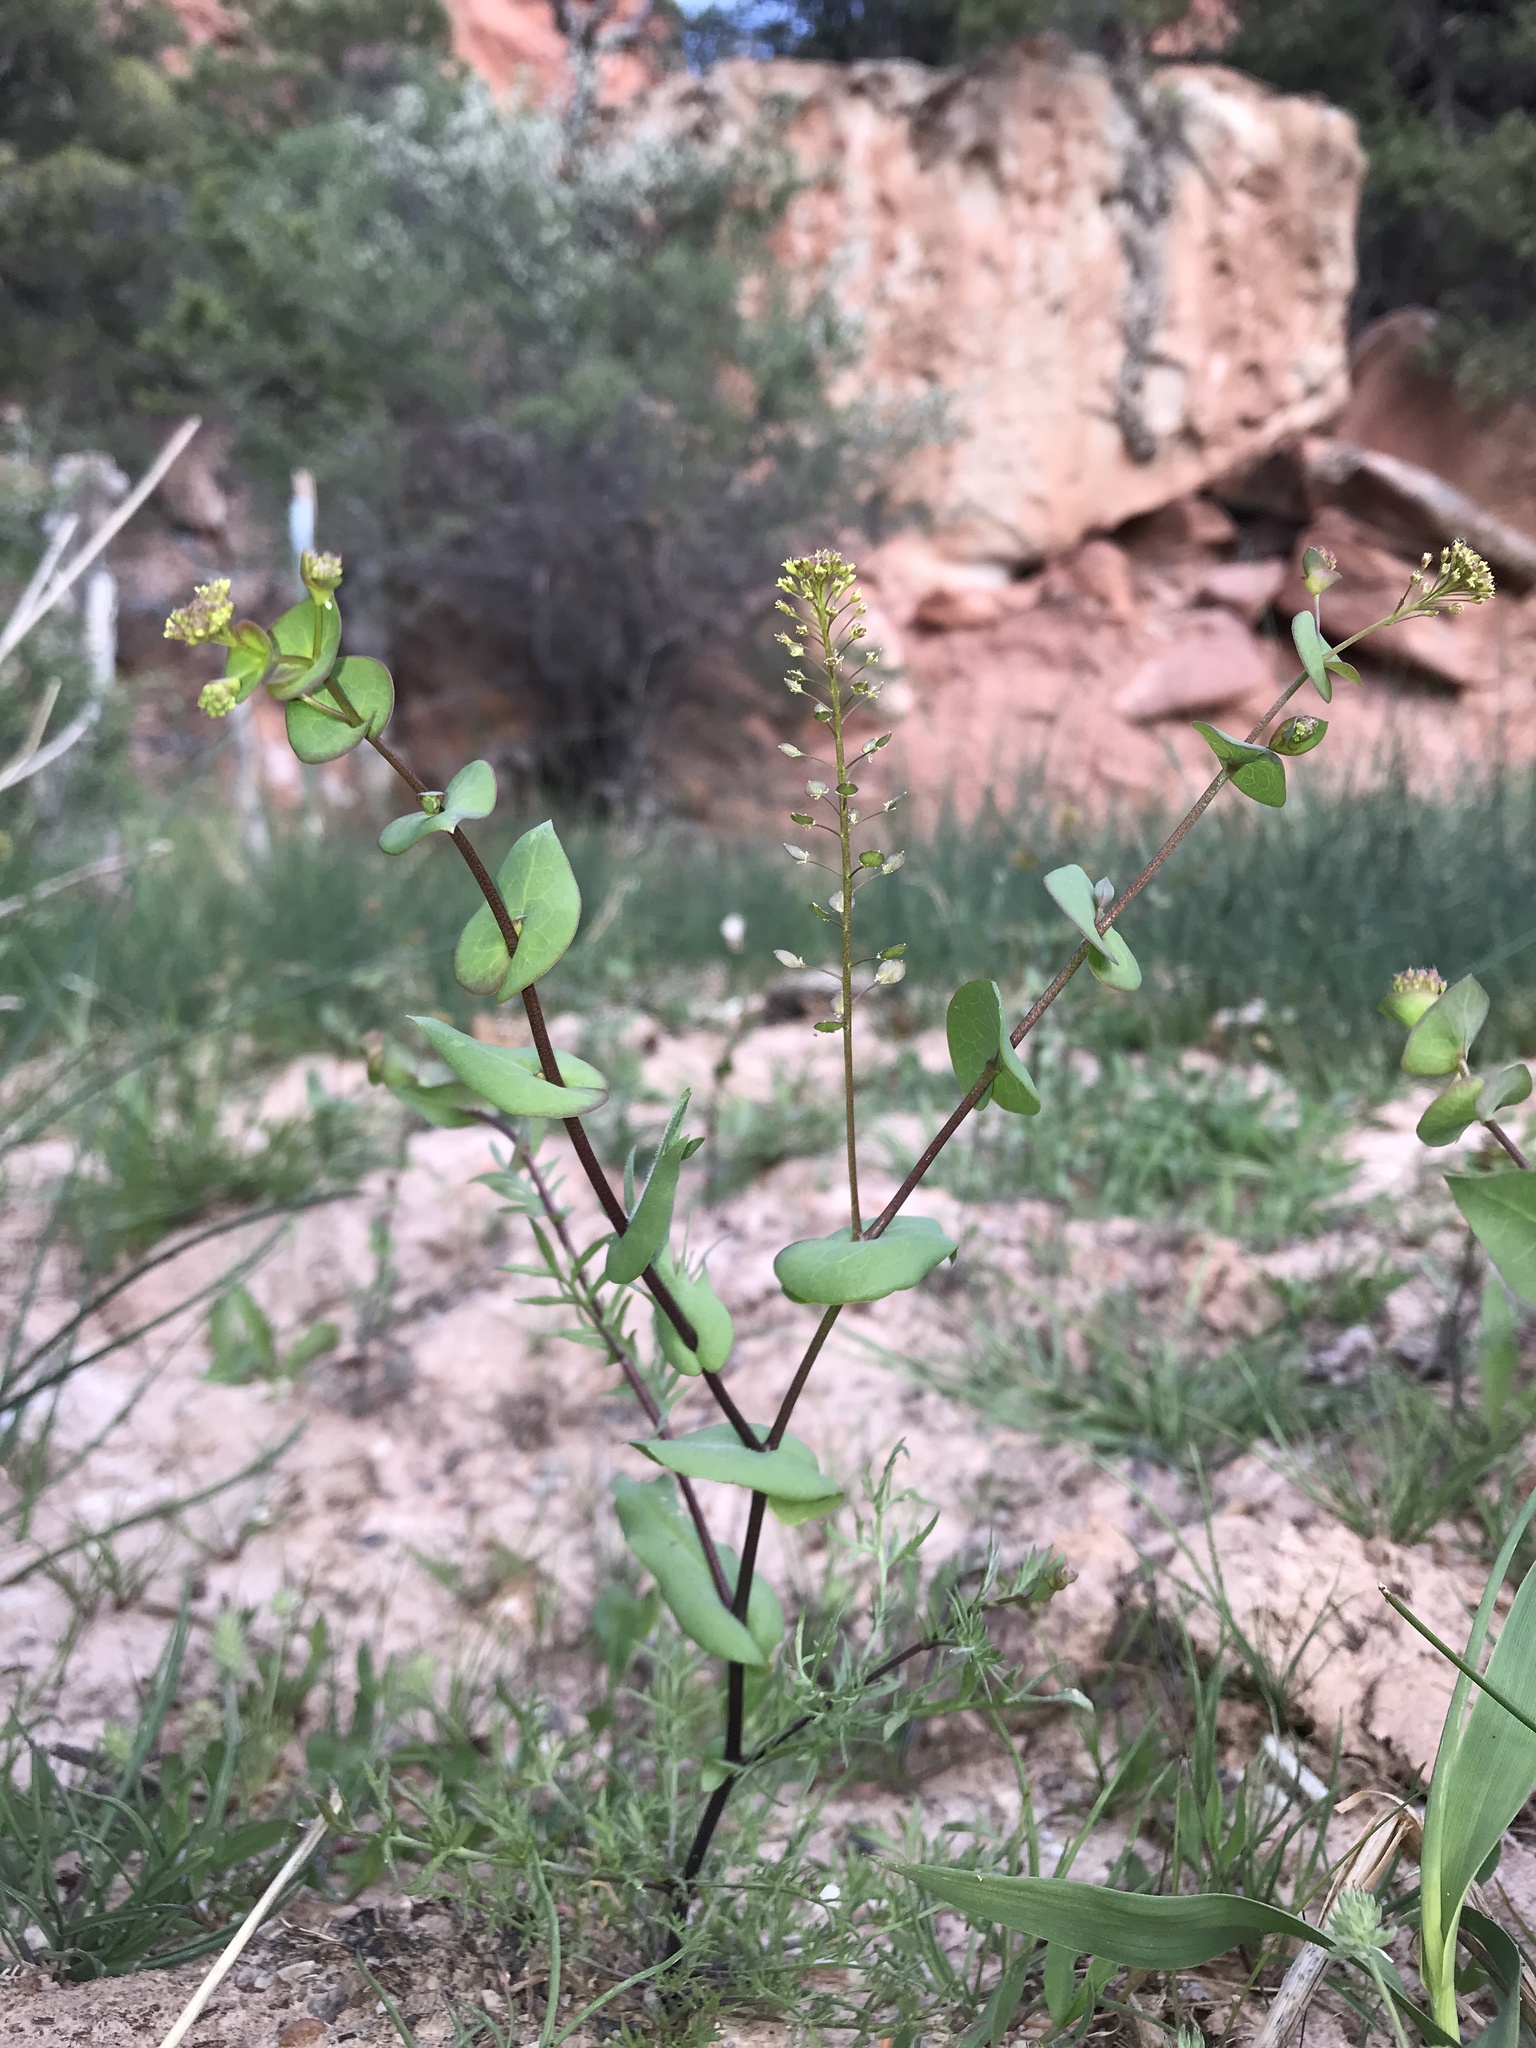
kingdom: Plantae
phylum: Tracheophyta
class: Magnoliopsida
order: Brassicales
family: Brassicaceae
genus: Lepidium
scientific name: Lepidium perfoliatum
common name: Perfoliate pepperwort
